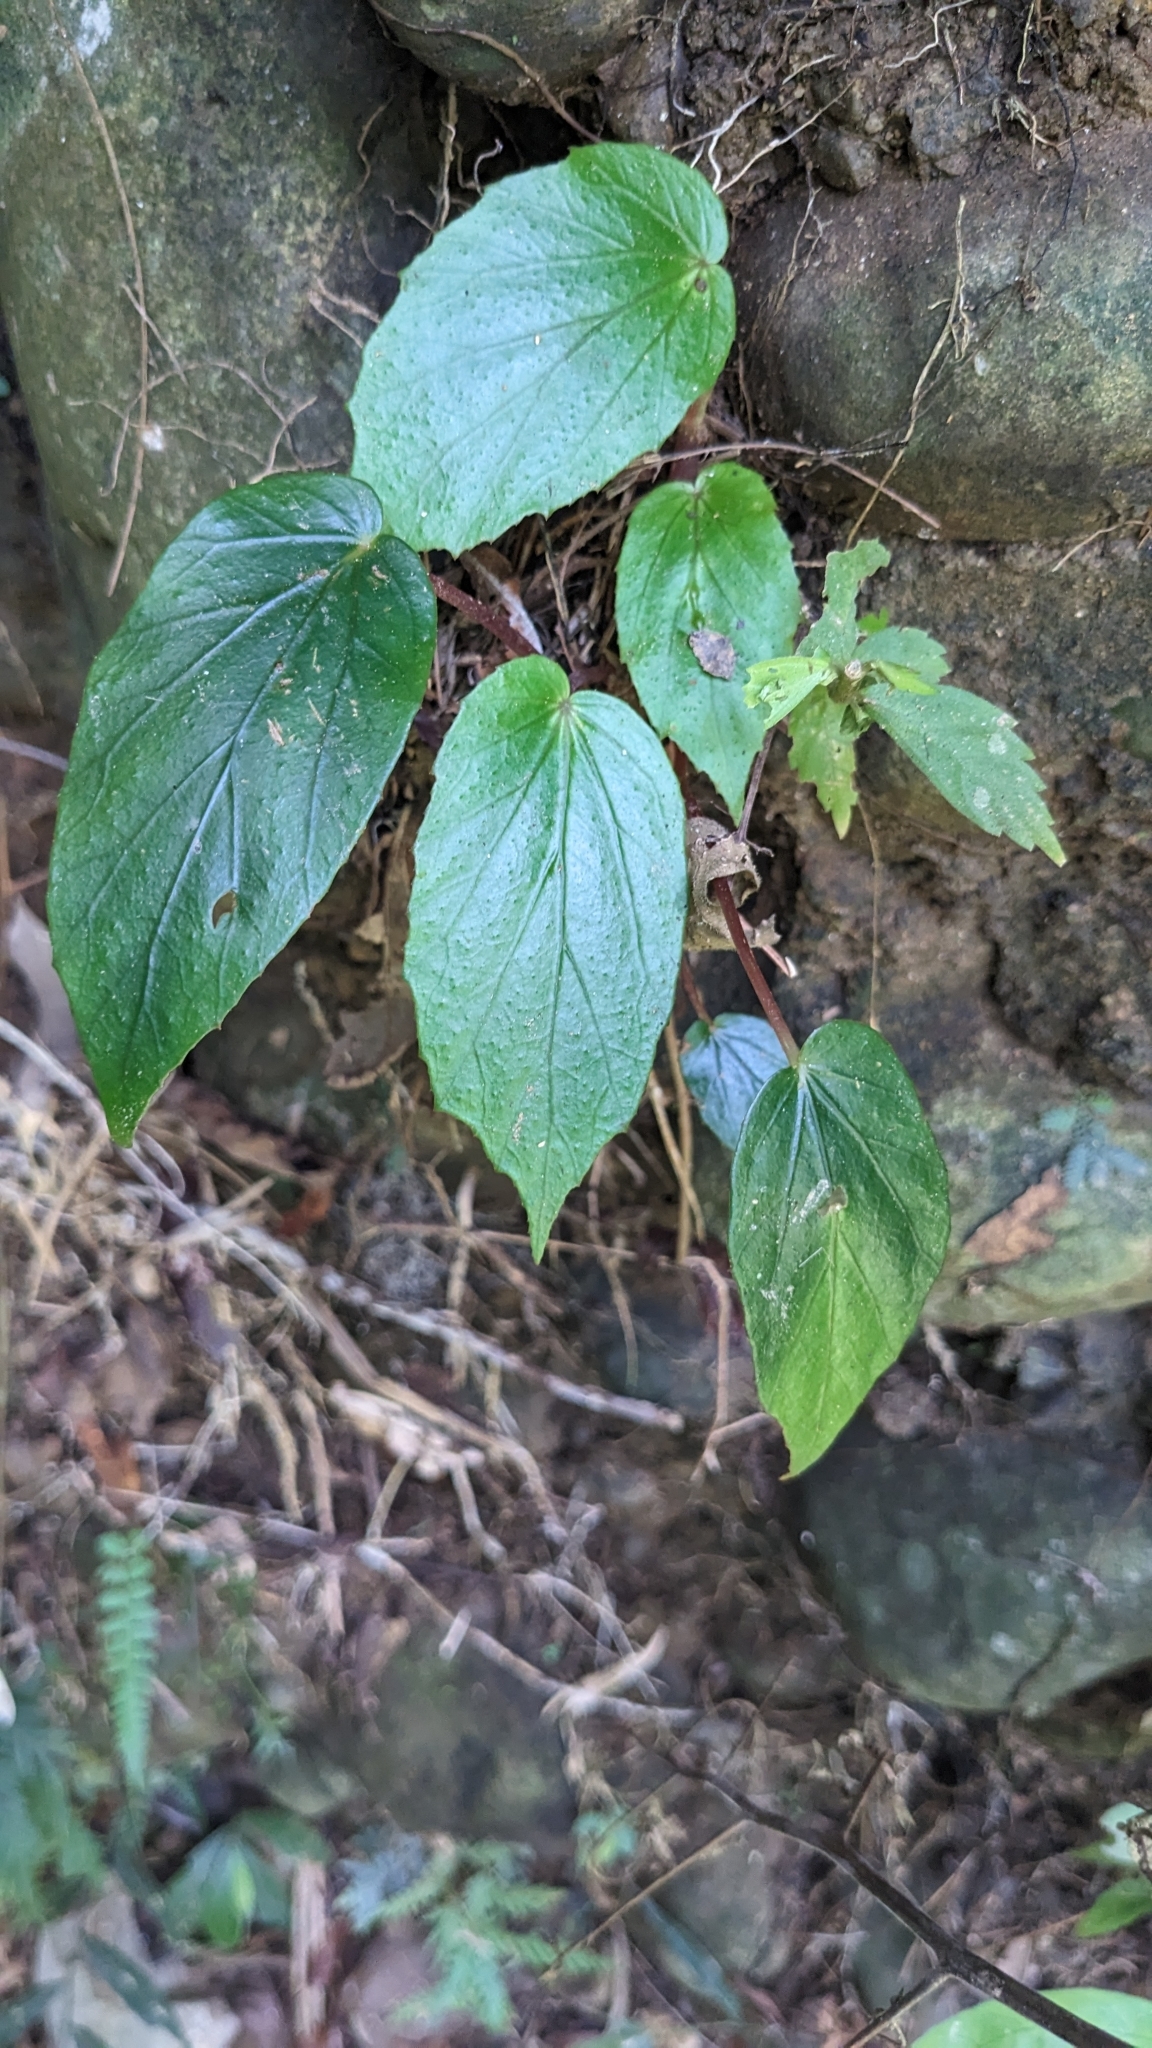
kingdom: Plantae
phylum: Tracheophyta
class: Magnoliopsida
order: Cucurbitales
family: Begoniaceae
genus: Begonia
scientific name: Begonia bouffordii
